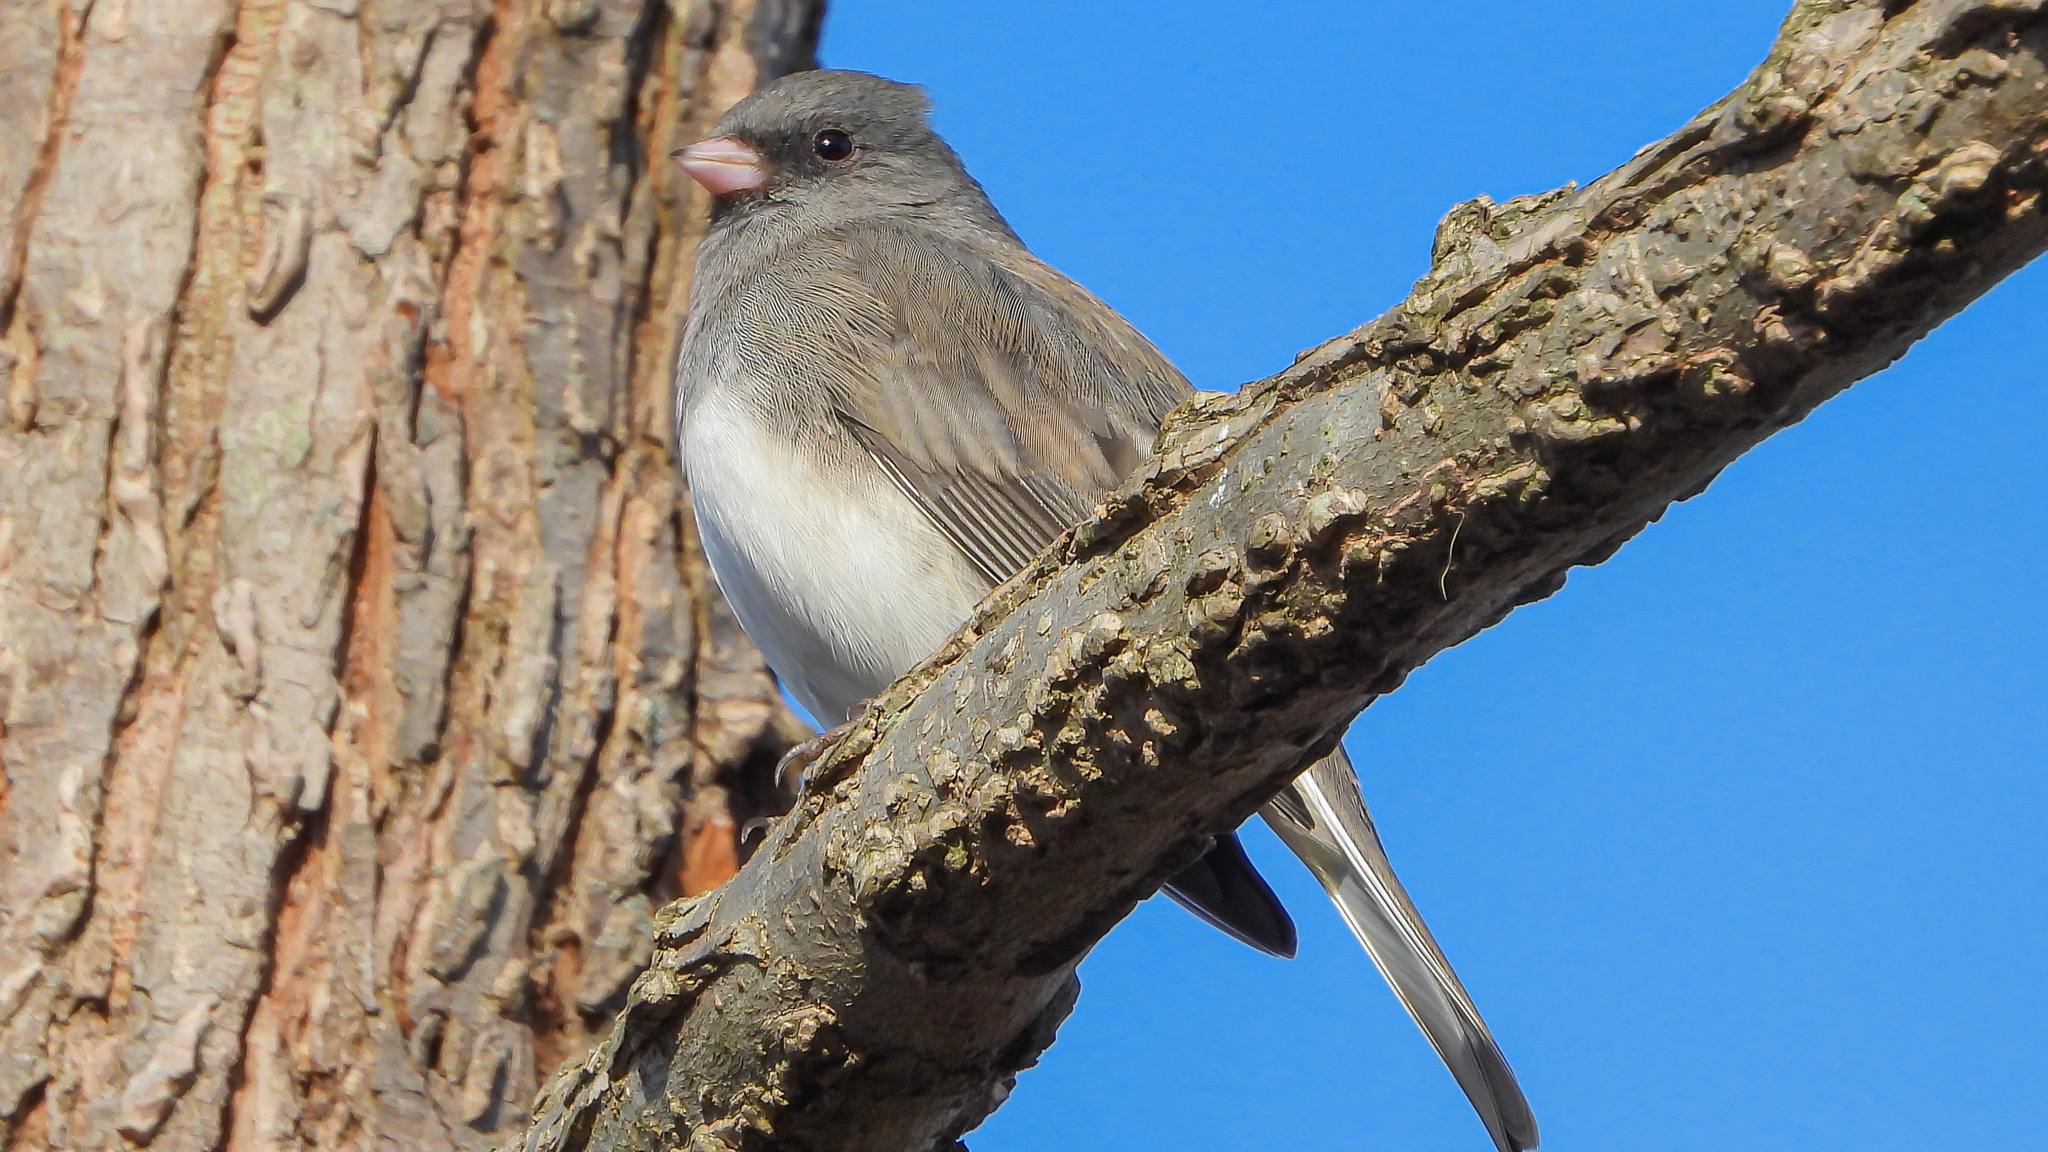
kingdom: Animalia
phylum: Chordata
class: Aves
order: Passeriformes
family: Passerellidae
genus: Junco
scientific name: Junco hyemalis
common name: Dark-eyed junco
